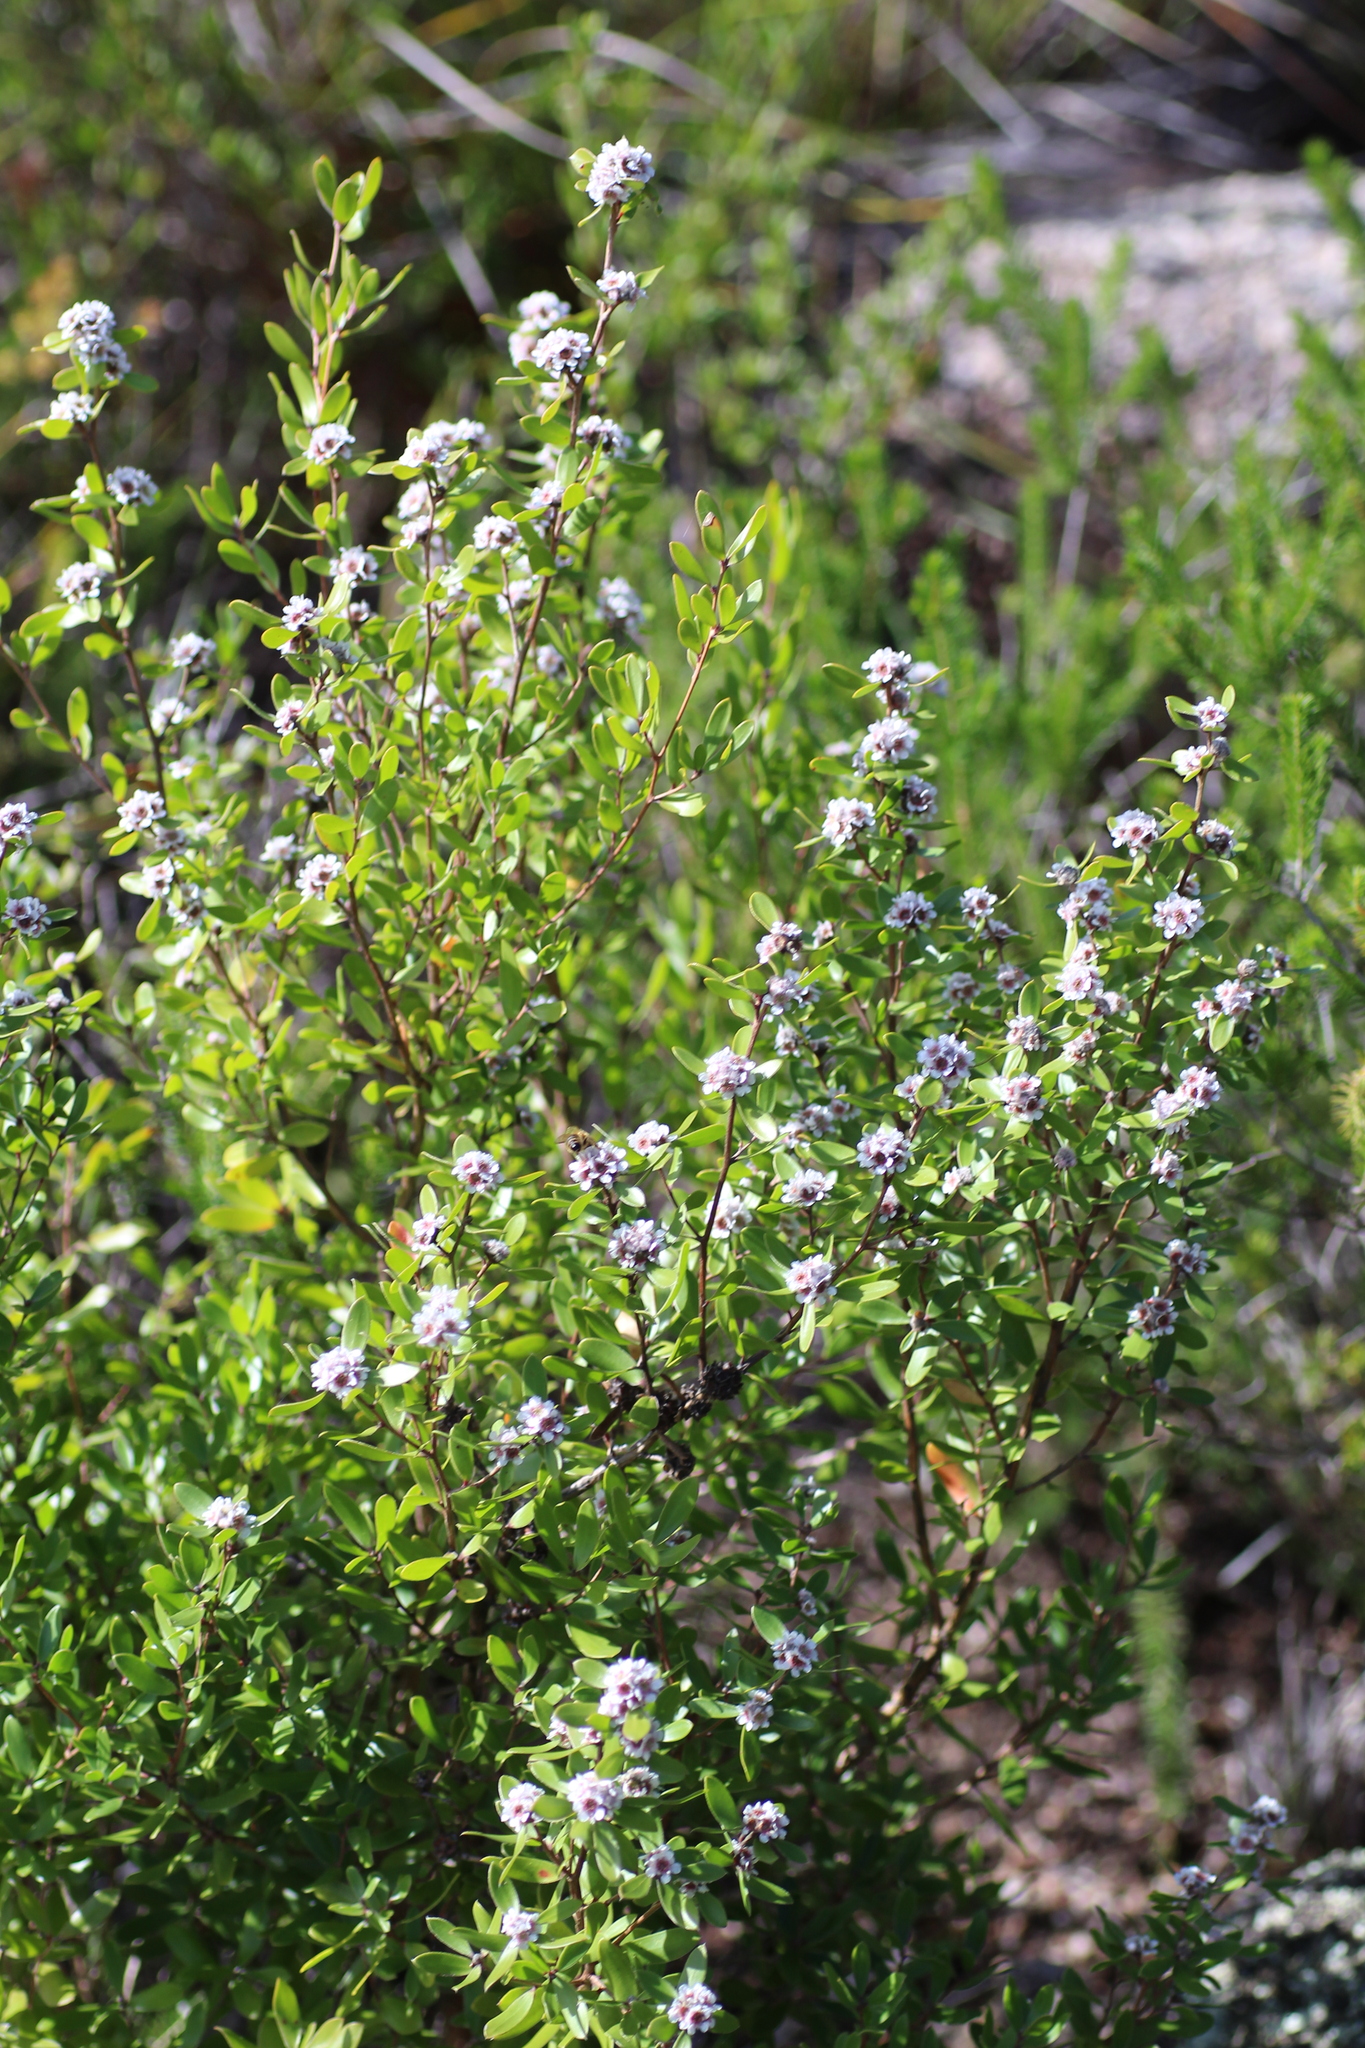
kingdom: Plantae
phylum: Tracheophyta
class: Magnoliopsida
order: Myrtales
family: Myrtaceae
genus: Taxandria
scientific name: Taxandria marginata
